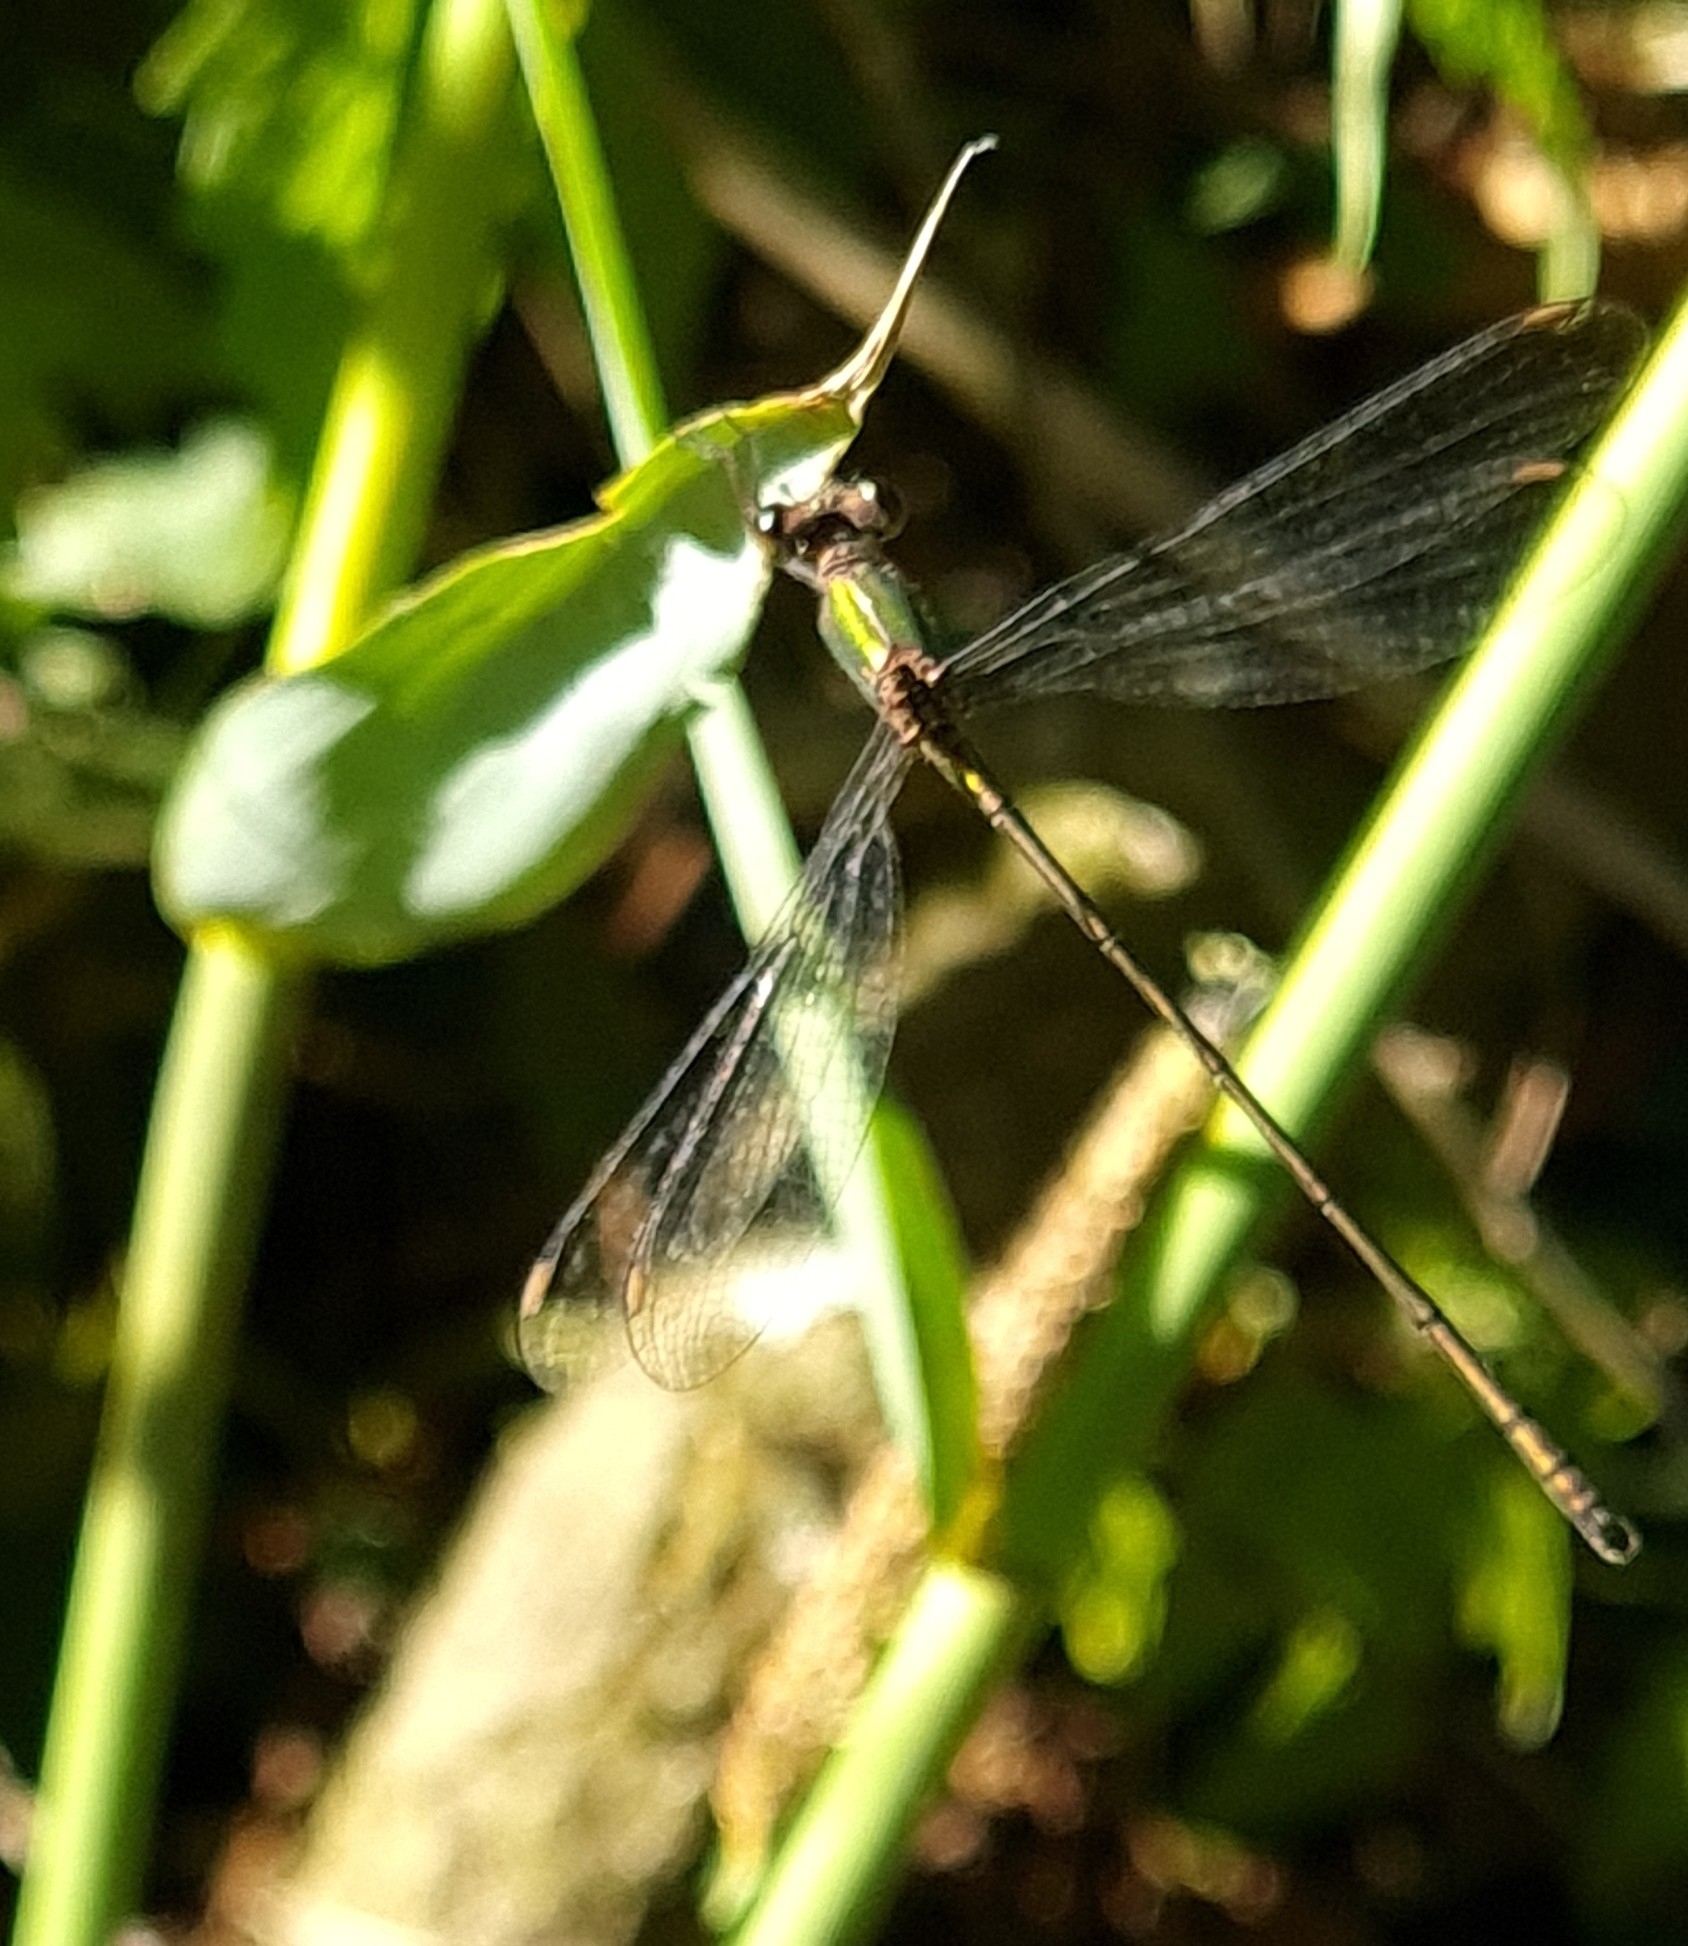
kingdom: Animalia
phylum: Arthropoda
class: Insecta
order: Odonata
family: Lestidae
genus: Chalcolestes
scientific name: Chalcolestes viridis
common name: Green emerald damselfly
